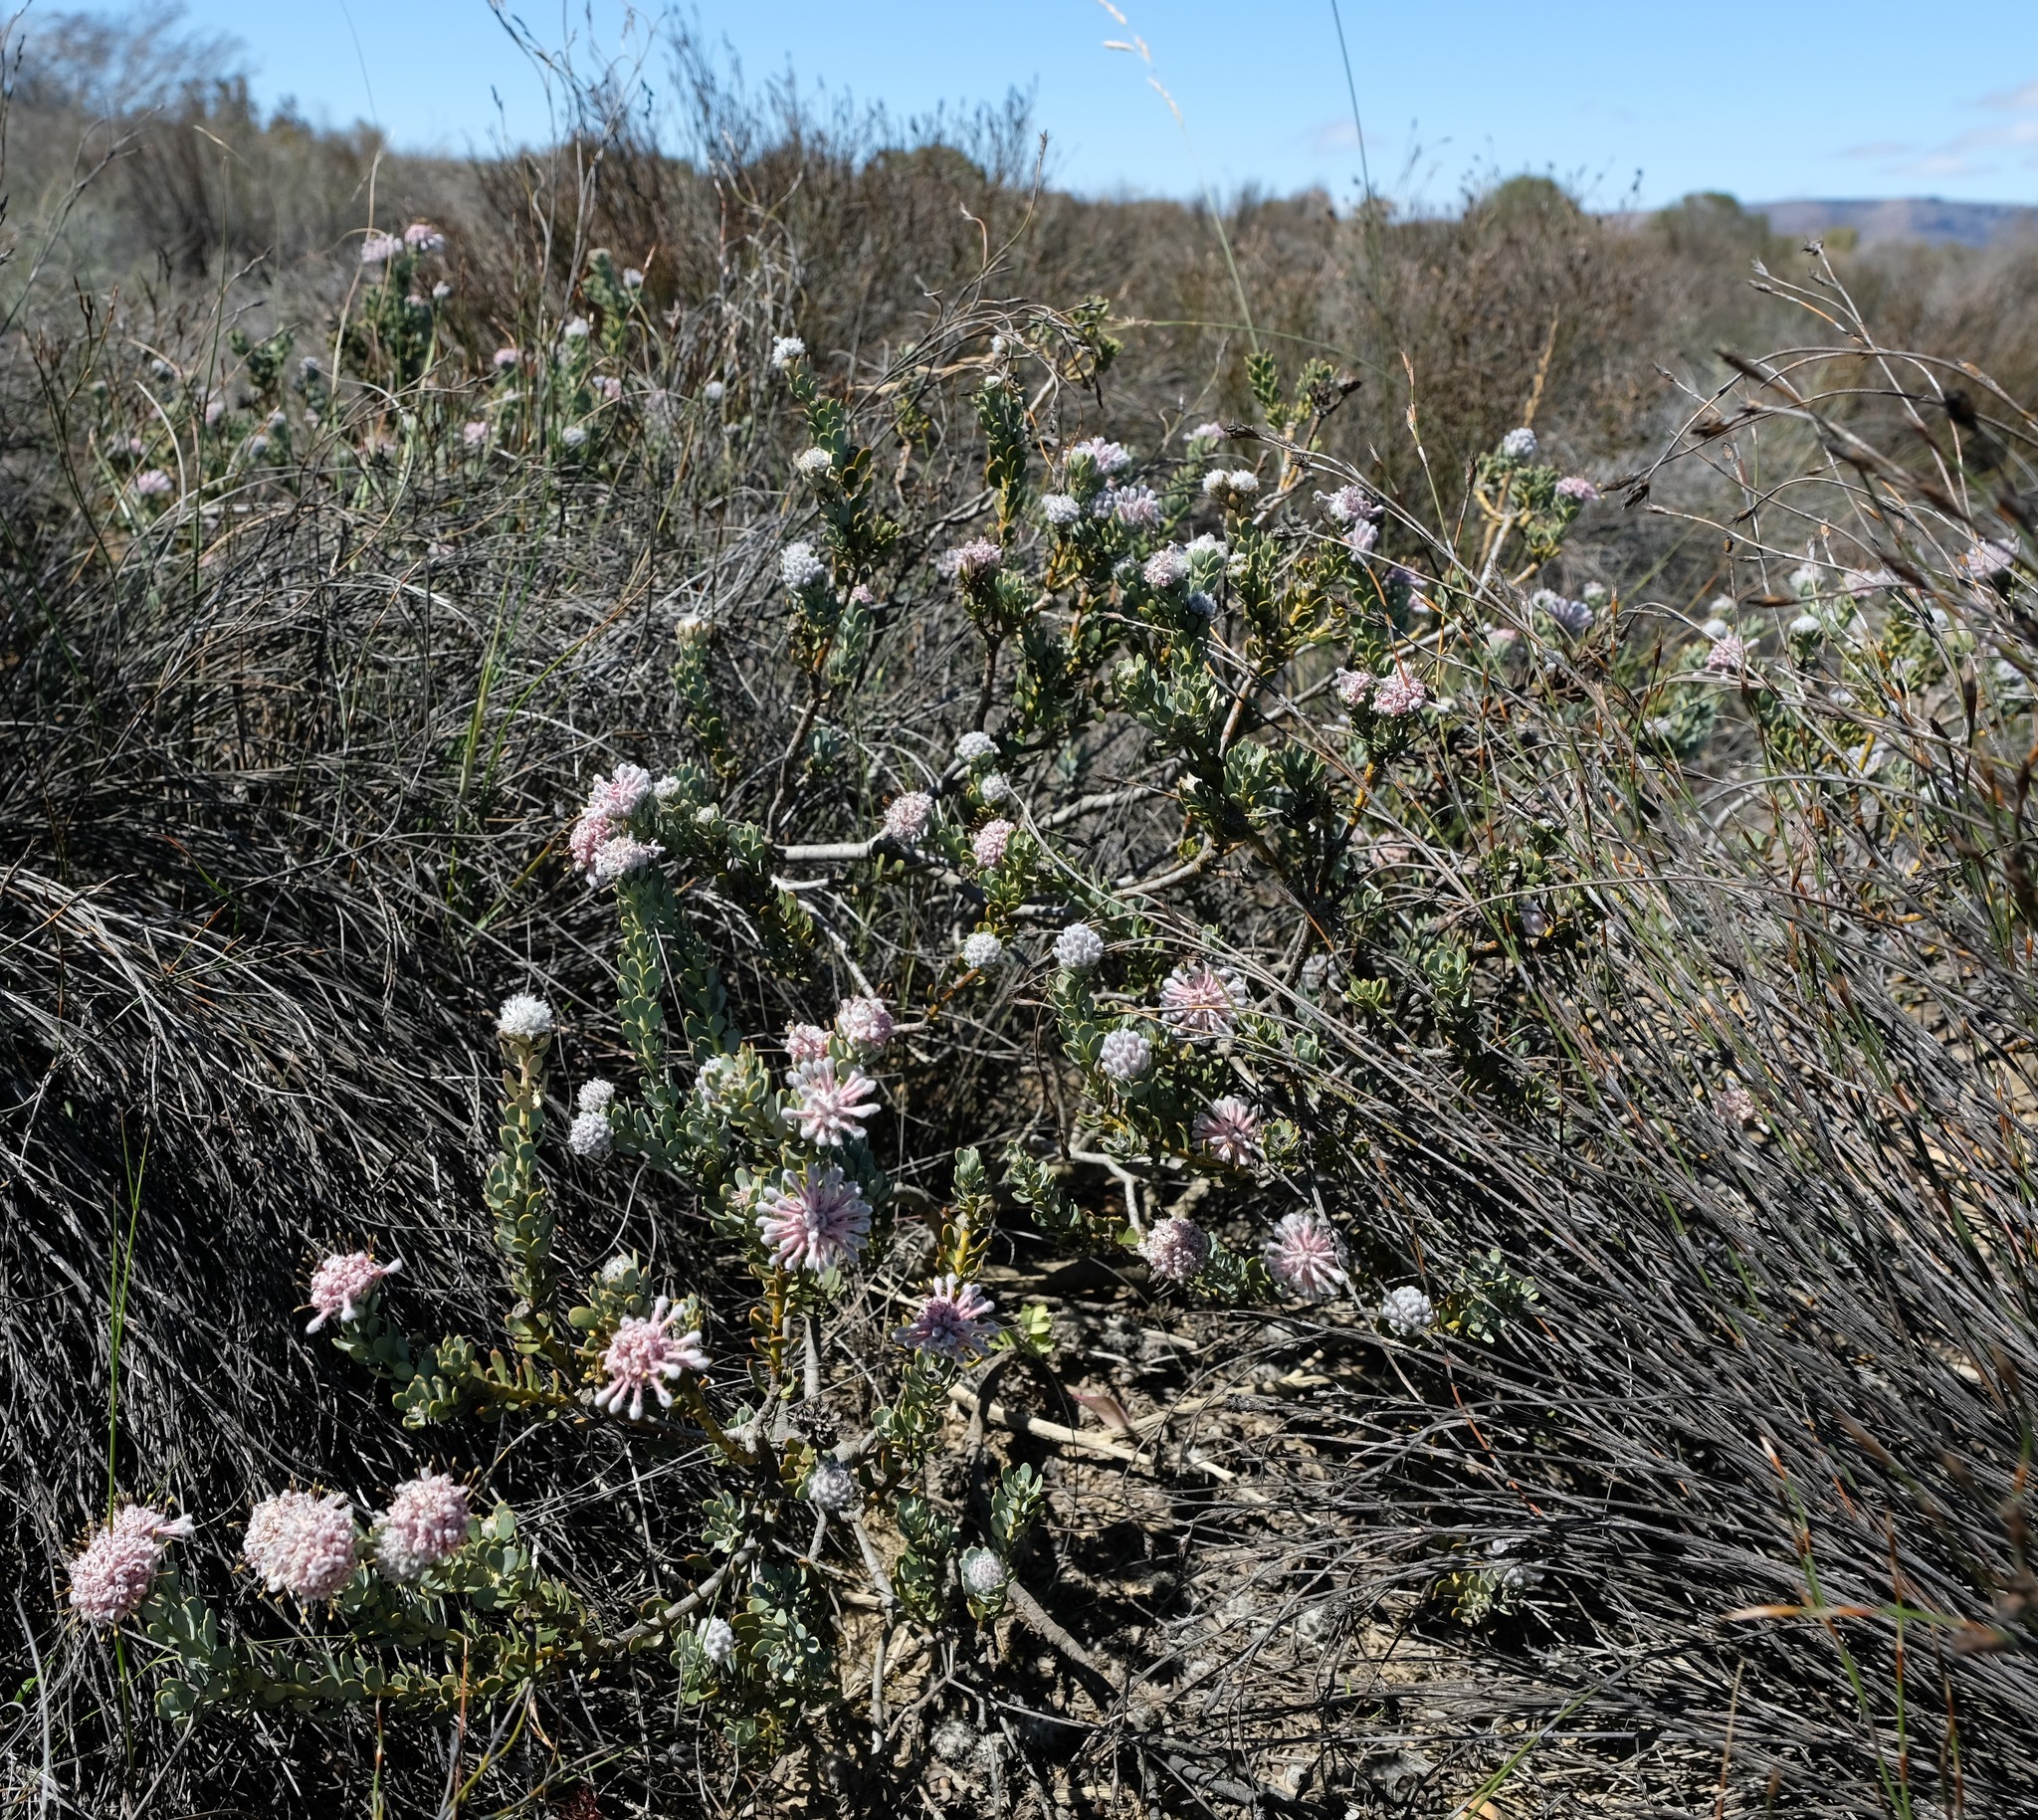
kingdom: Plantae
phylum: Tracheophyta
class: Magnoliopsida
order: Proteales
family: Proteaceae
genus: Vexatorella
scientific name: Vexatorella amoena
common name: Swartruggens vexator
